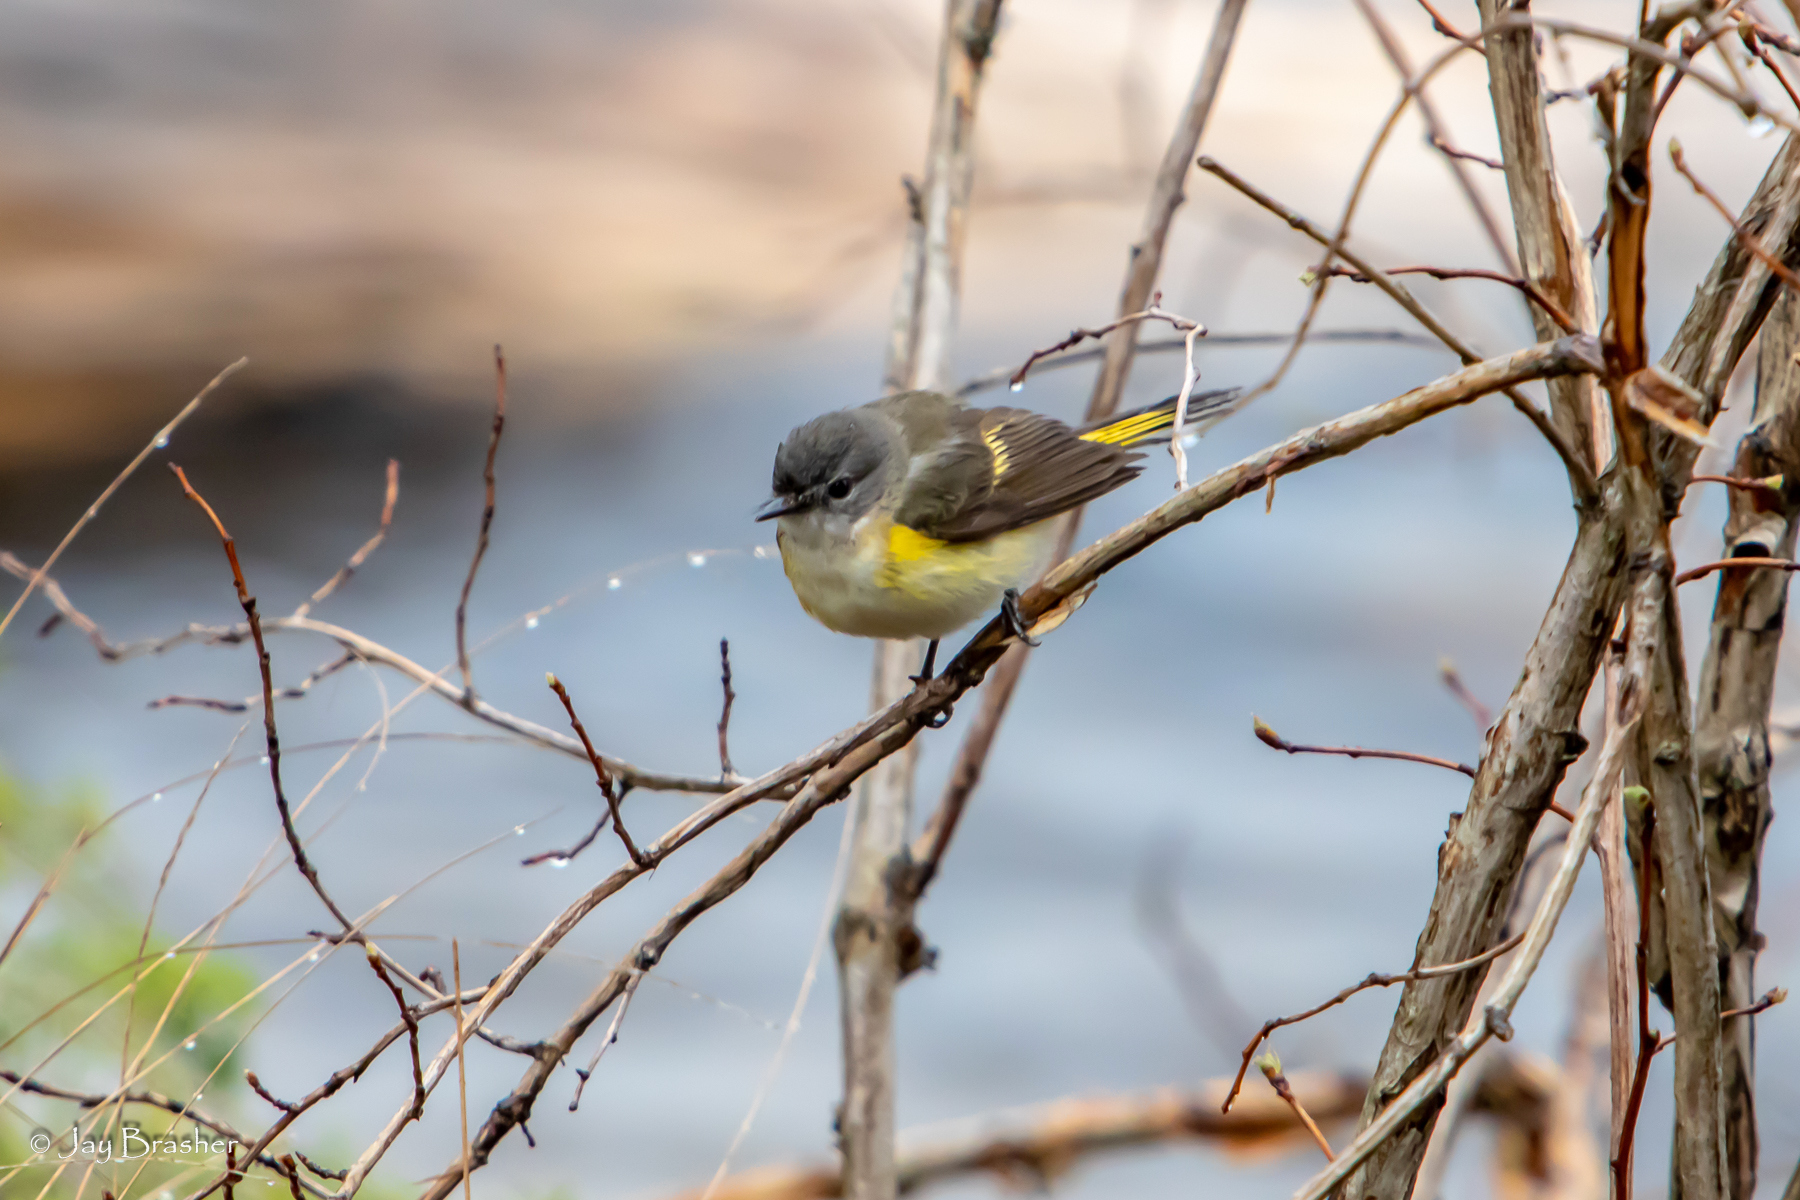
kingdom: Animalia
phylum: Chordata
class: Aves
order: Passeriformes
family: Parulidae
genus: Setophaga
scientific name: Setophaga ruticilla
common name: American redstart
